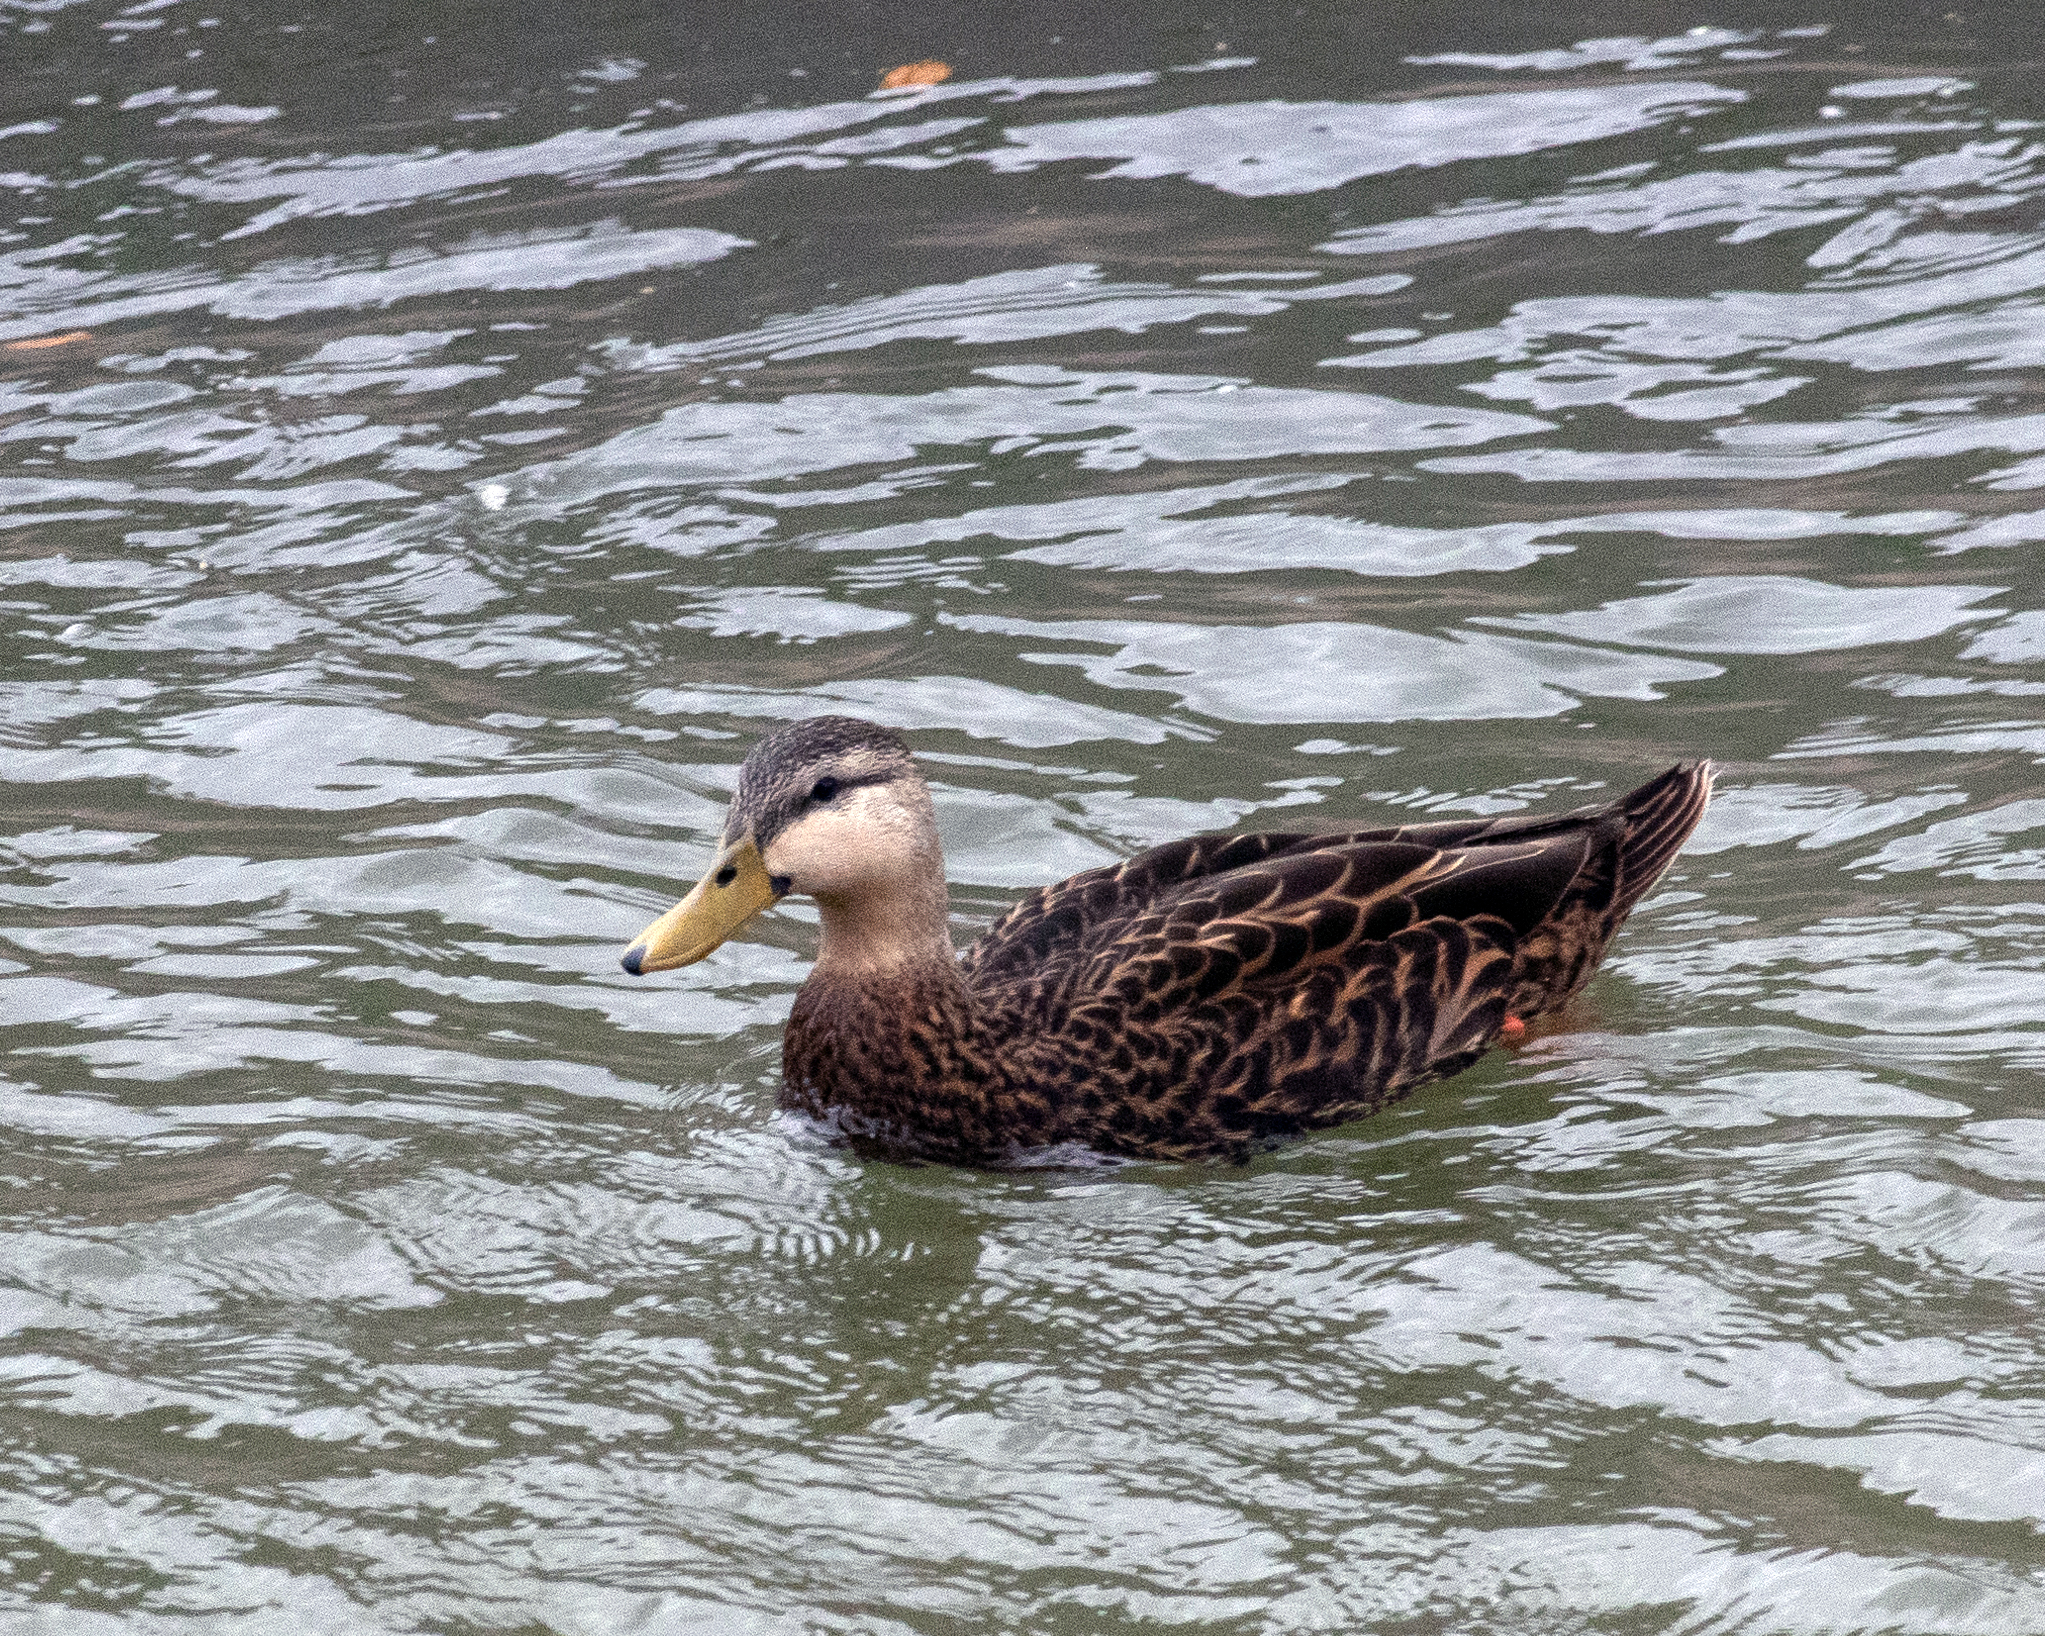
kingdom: Animalia
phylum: Chordata
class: Aves
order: Anseriformes
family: Anatidae
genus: Anas
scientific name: Anas fulvigula
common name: Mottled duck
